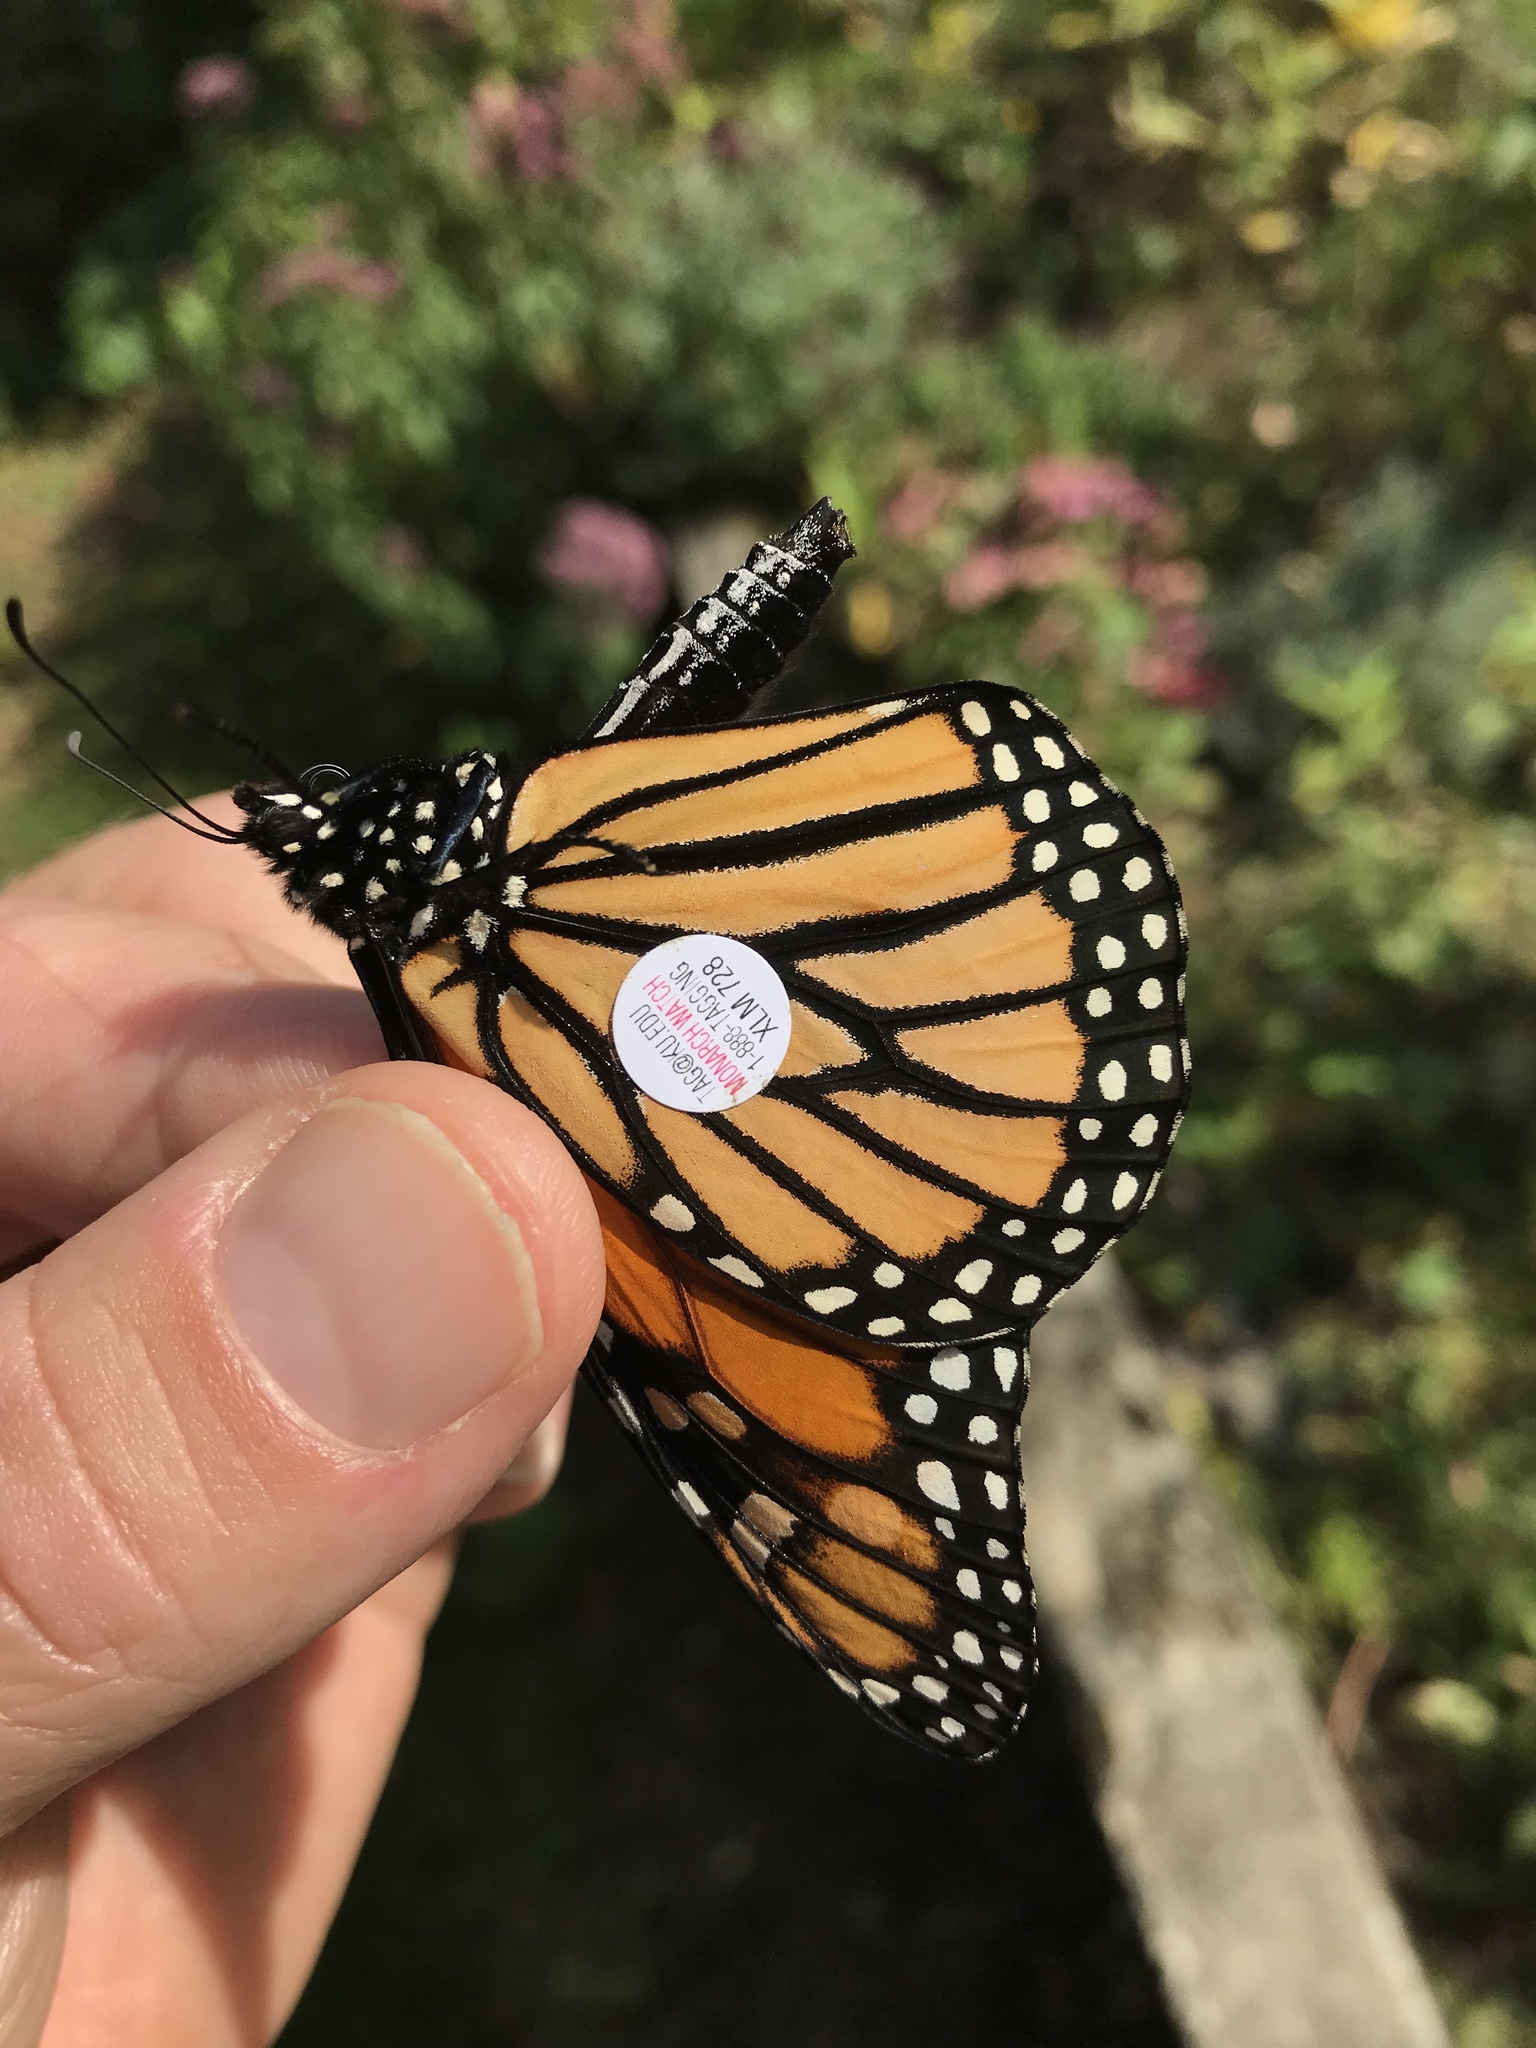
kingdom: Animalia
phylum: Arthropoda
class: Insecta
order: Lepidoptera
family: Nymphalidae
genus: Danaus
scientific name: Danaus plexippus
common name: Monarch
